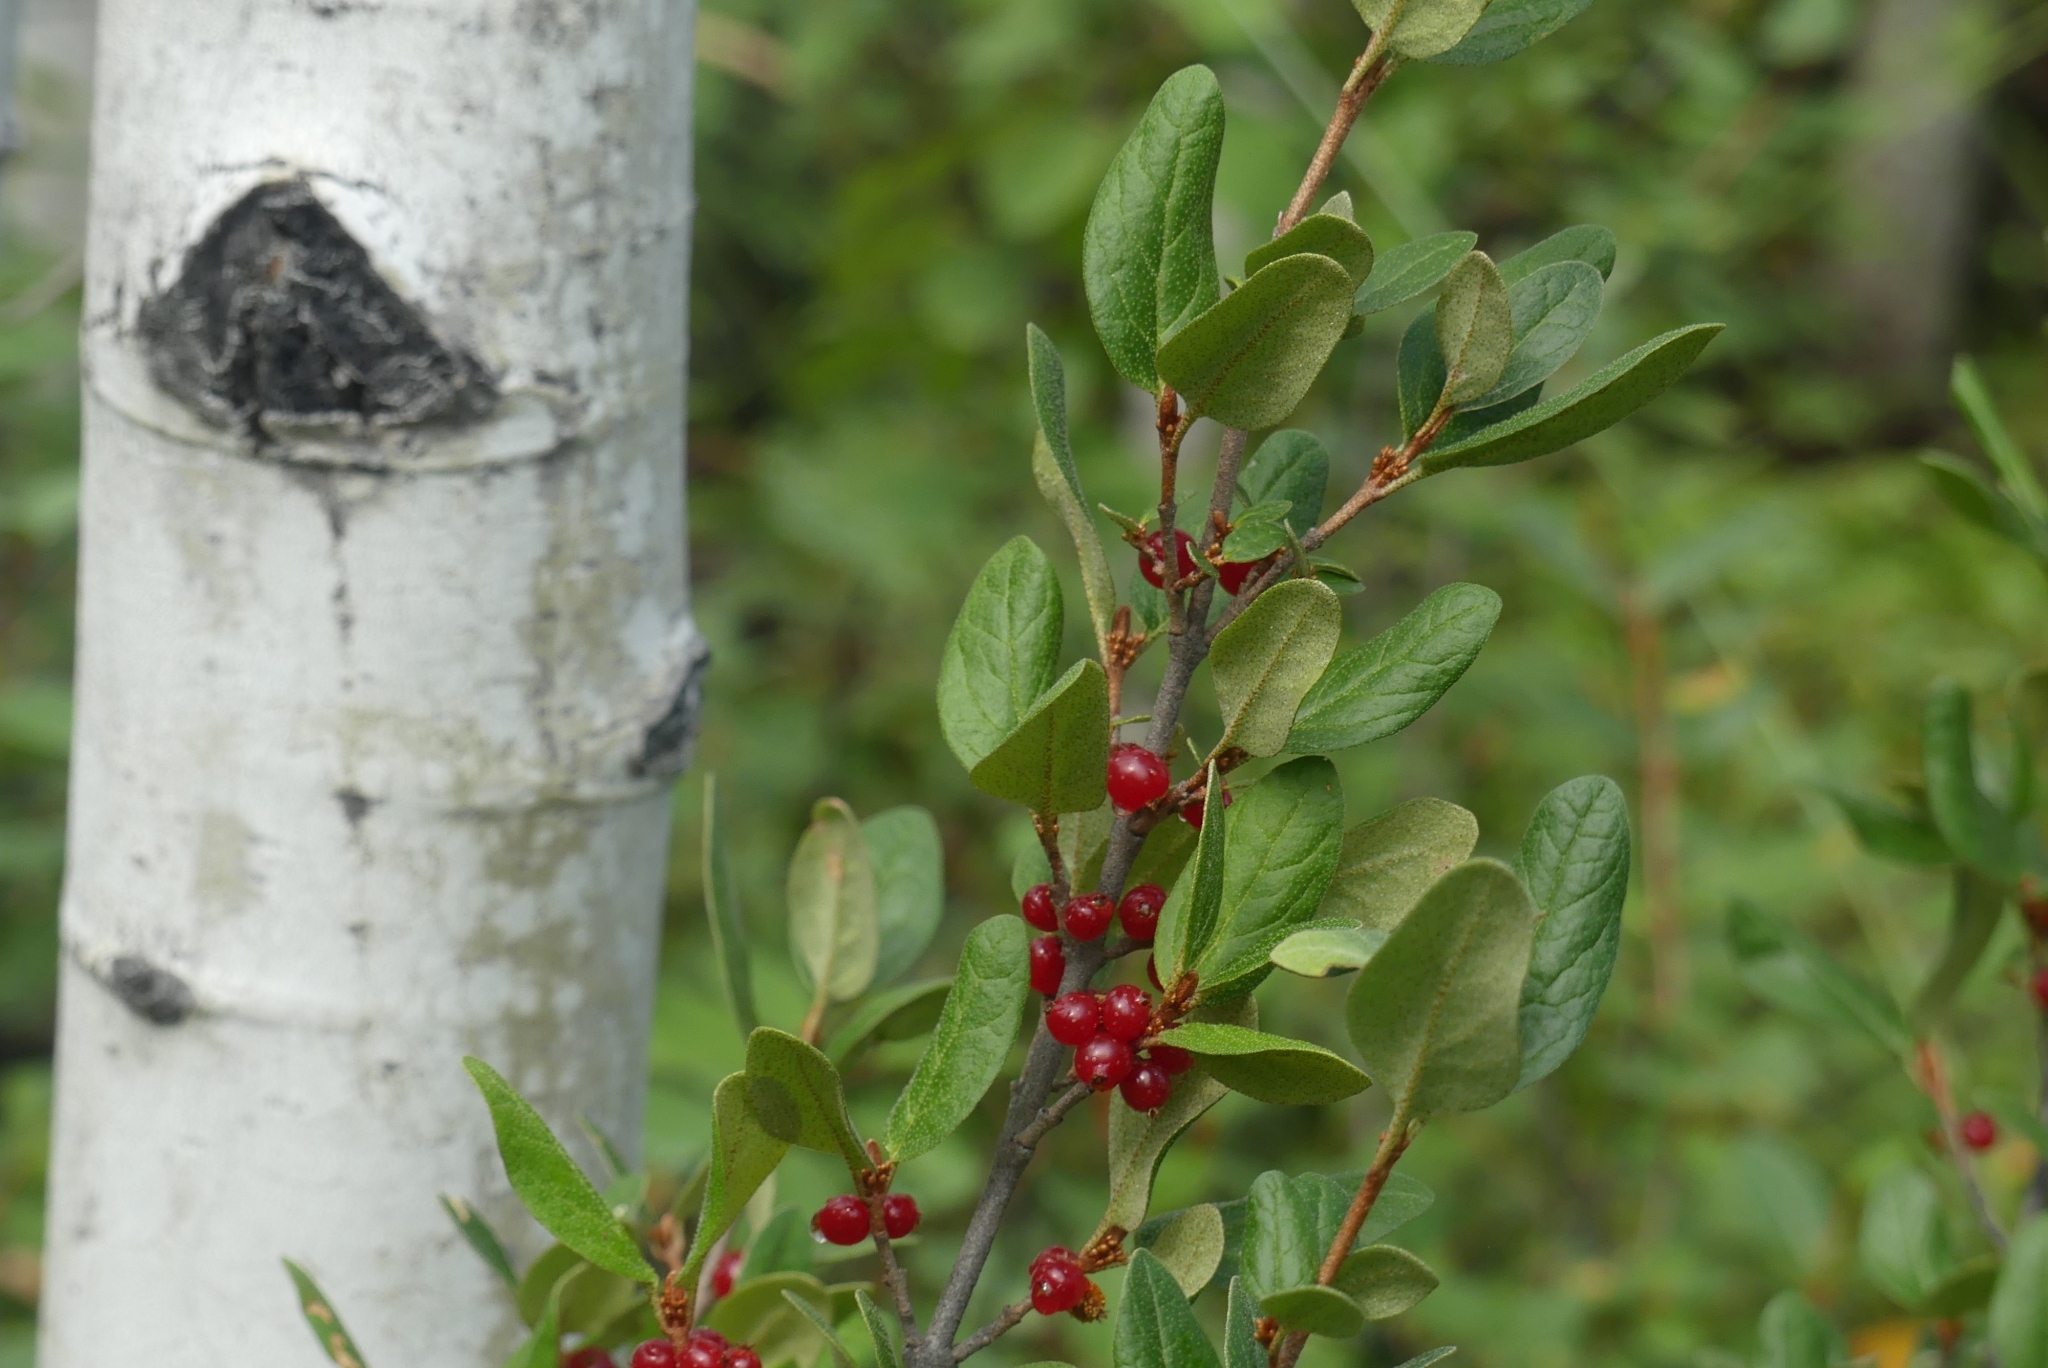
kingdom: Plantae
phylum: Tracheophyta
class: Magnoliopsida
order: Rosales
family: Elaeagnaceae
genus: Shepherdia
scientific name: Shepherdia canadensis
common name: Soapberry
